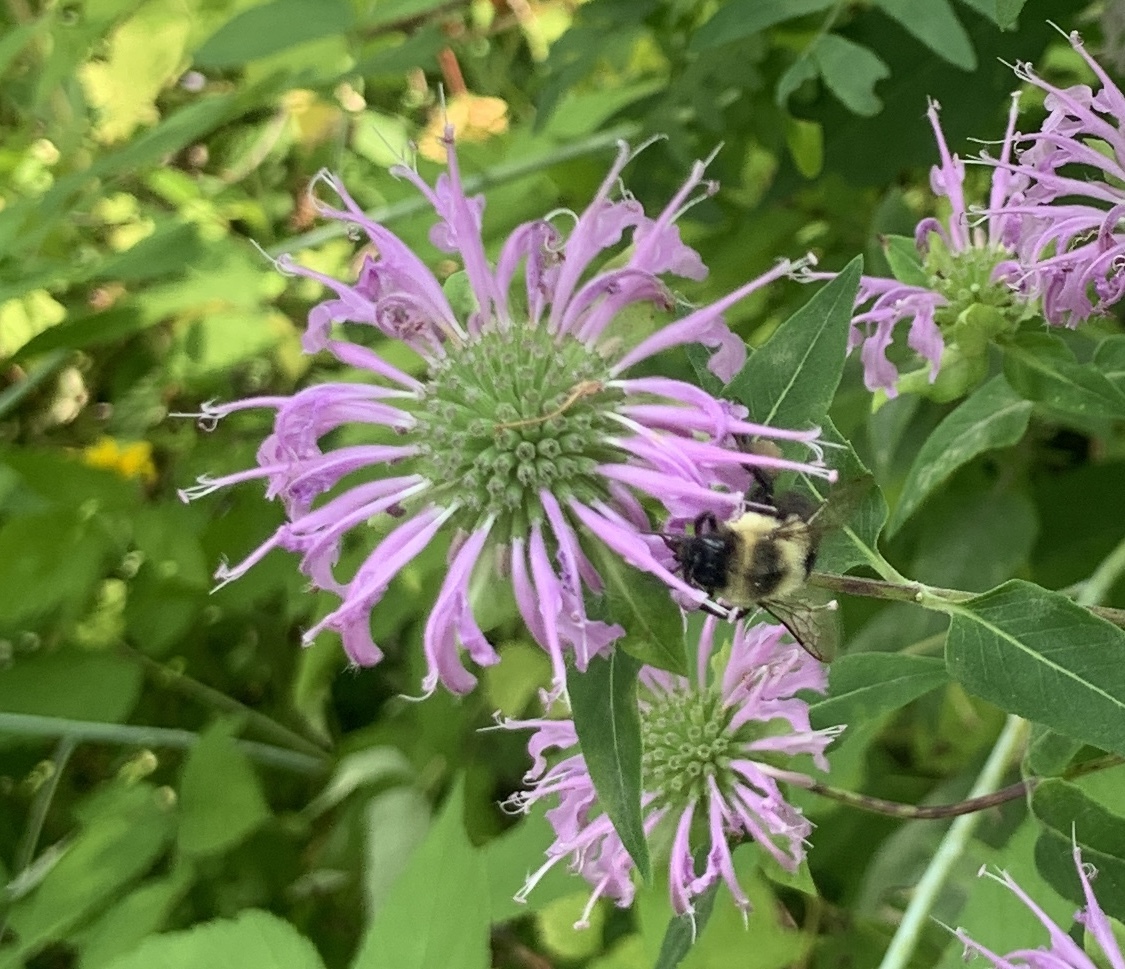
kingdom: Animalia
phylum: Arthropoda
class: Insecta
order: Hymenoptera
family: Apidae
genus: Bombus
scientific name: Bombus impatiens
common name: Common eastern bumble bee
